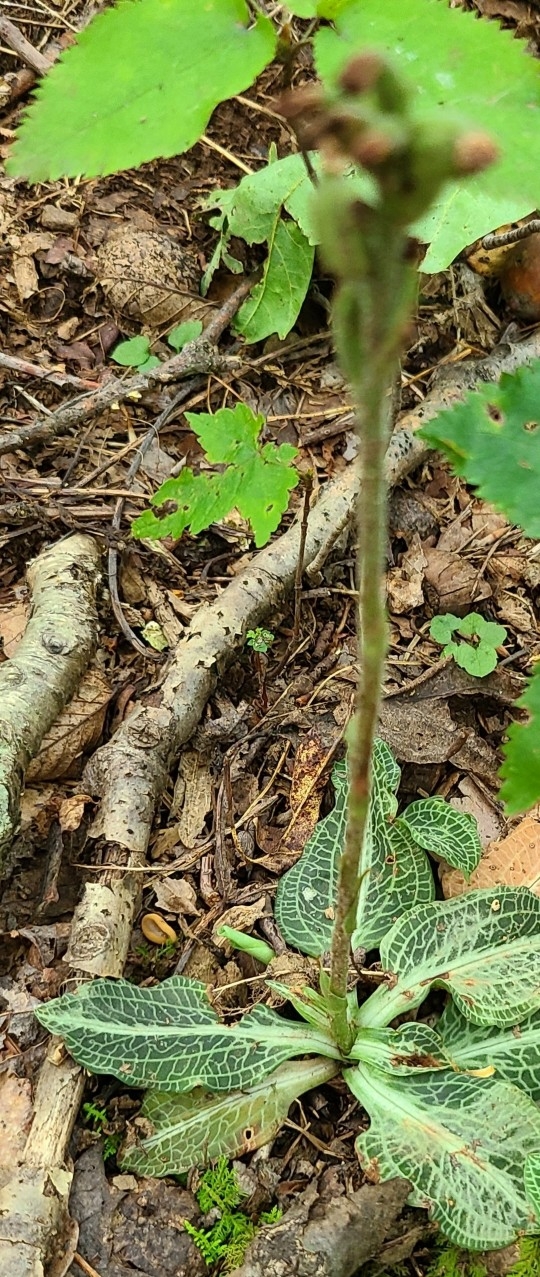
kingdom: Plantae
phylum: Tracheophyta
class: Liliopsida
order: Asparagales
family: Orchidaceae
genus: Goodyera
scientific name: Goodyera pubescens
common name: Downy rattlesnake-plantain
